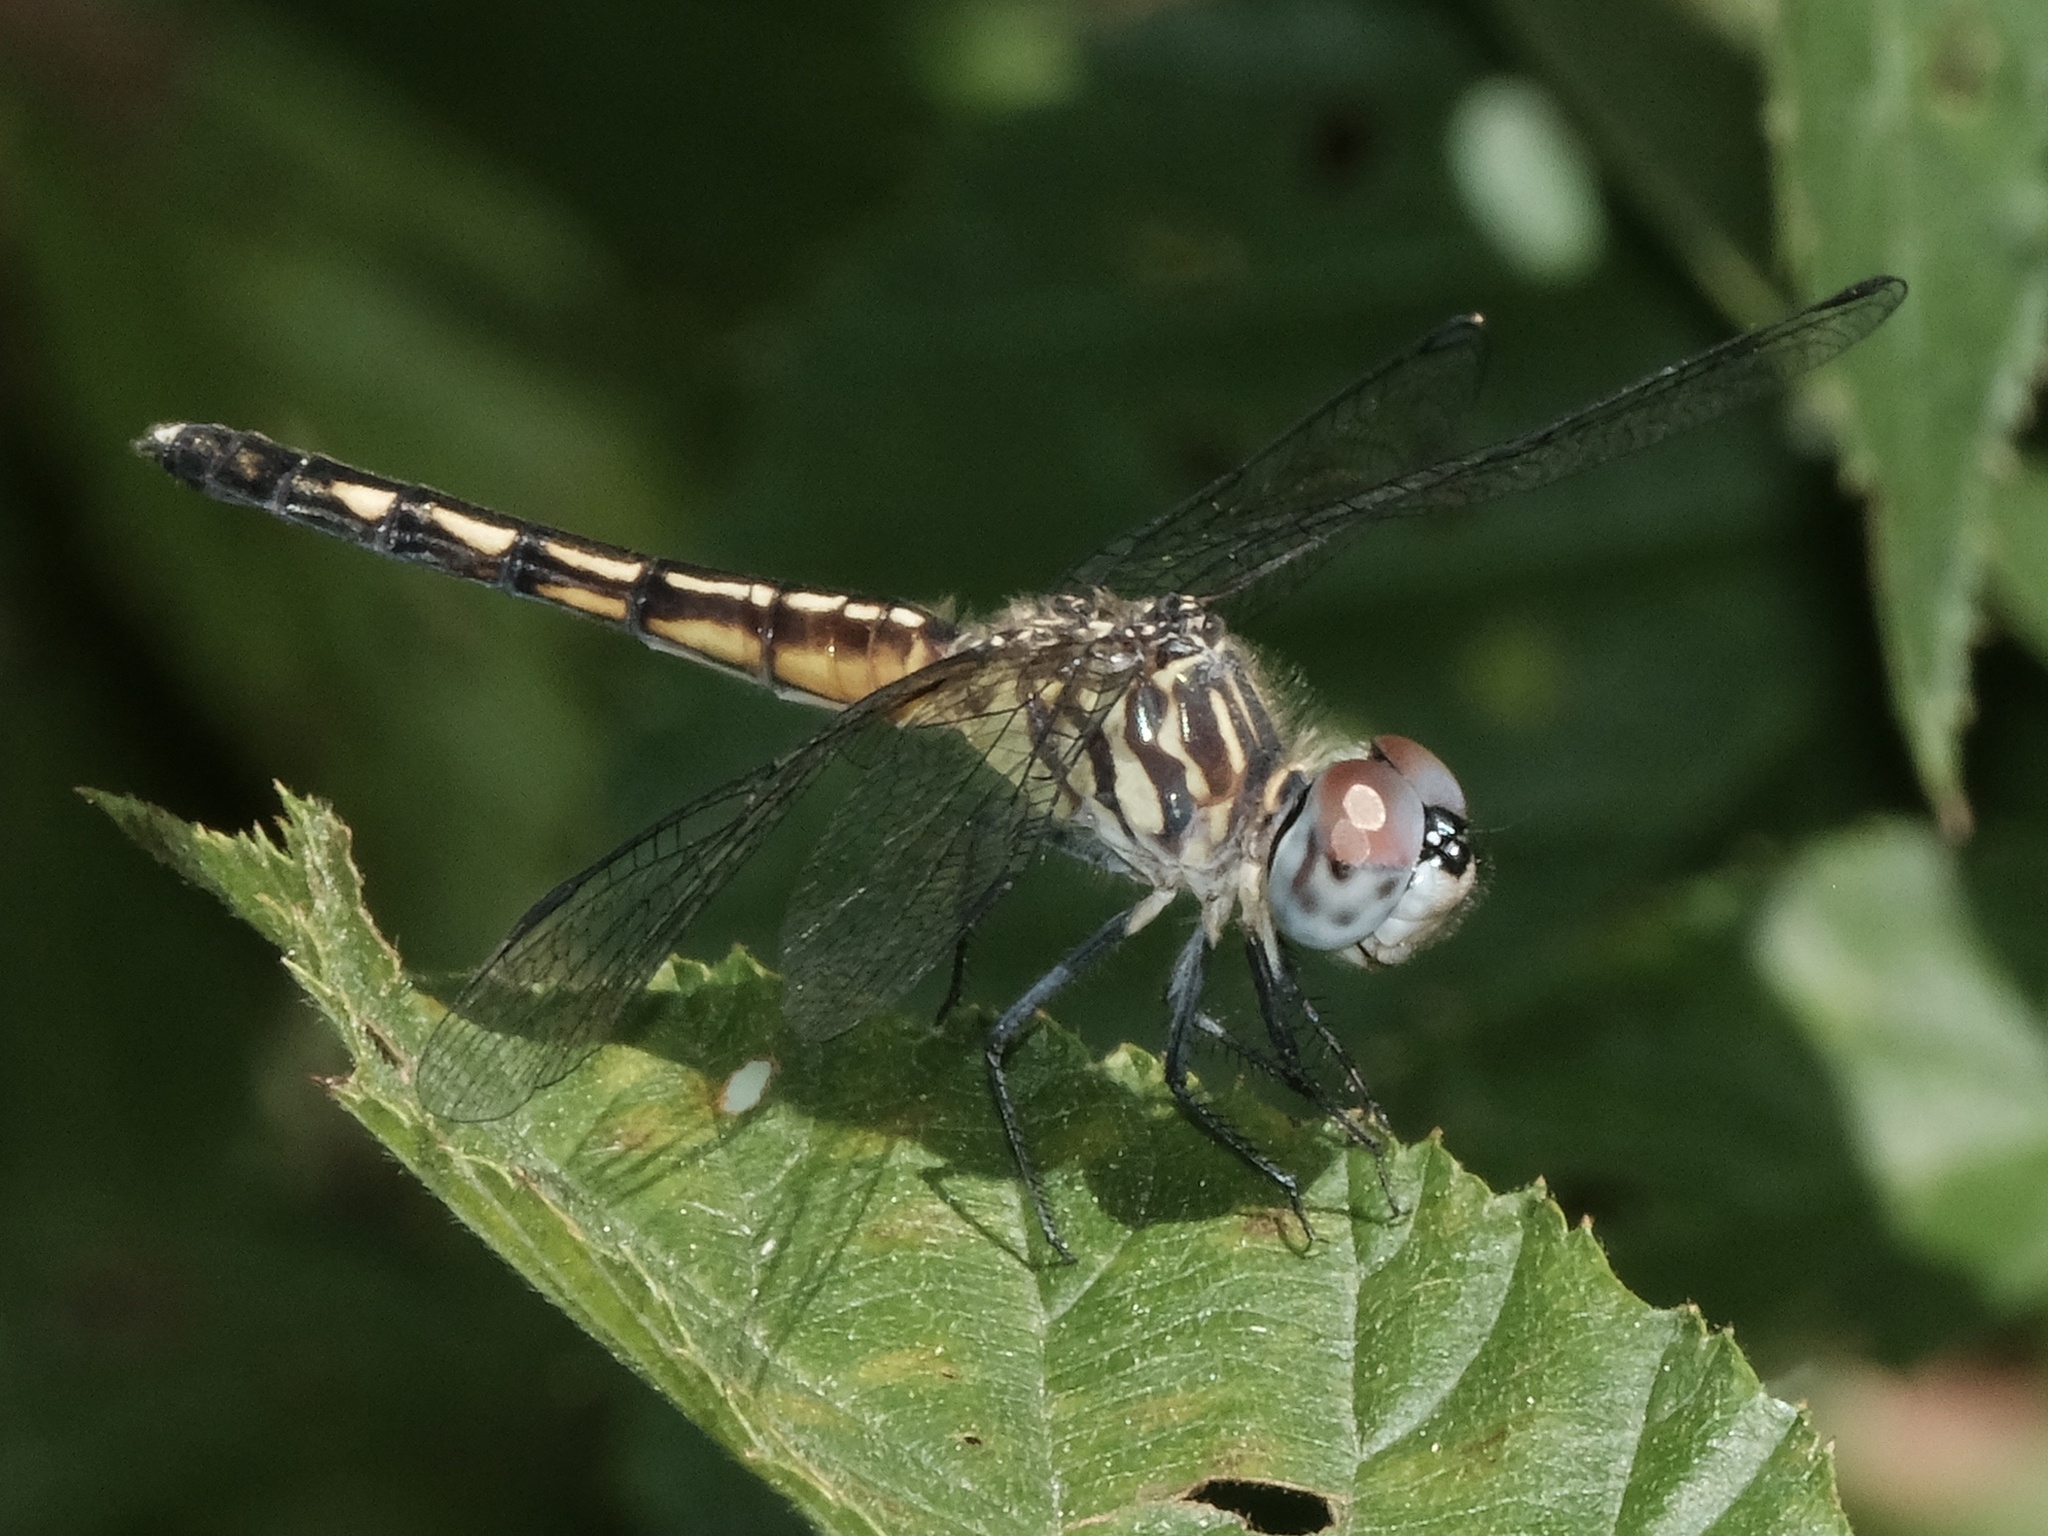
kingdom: Animalia
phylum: Arthropoda
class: Insecta
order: Odonata
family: Libellulidae
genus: Pachydiplax
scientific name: Pachydiplax longipennis
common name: Blue dasher
